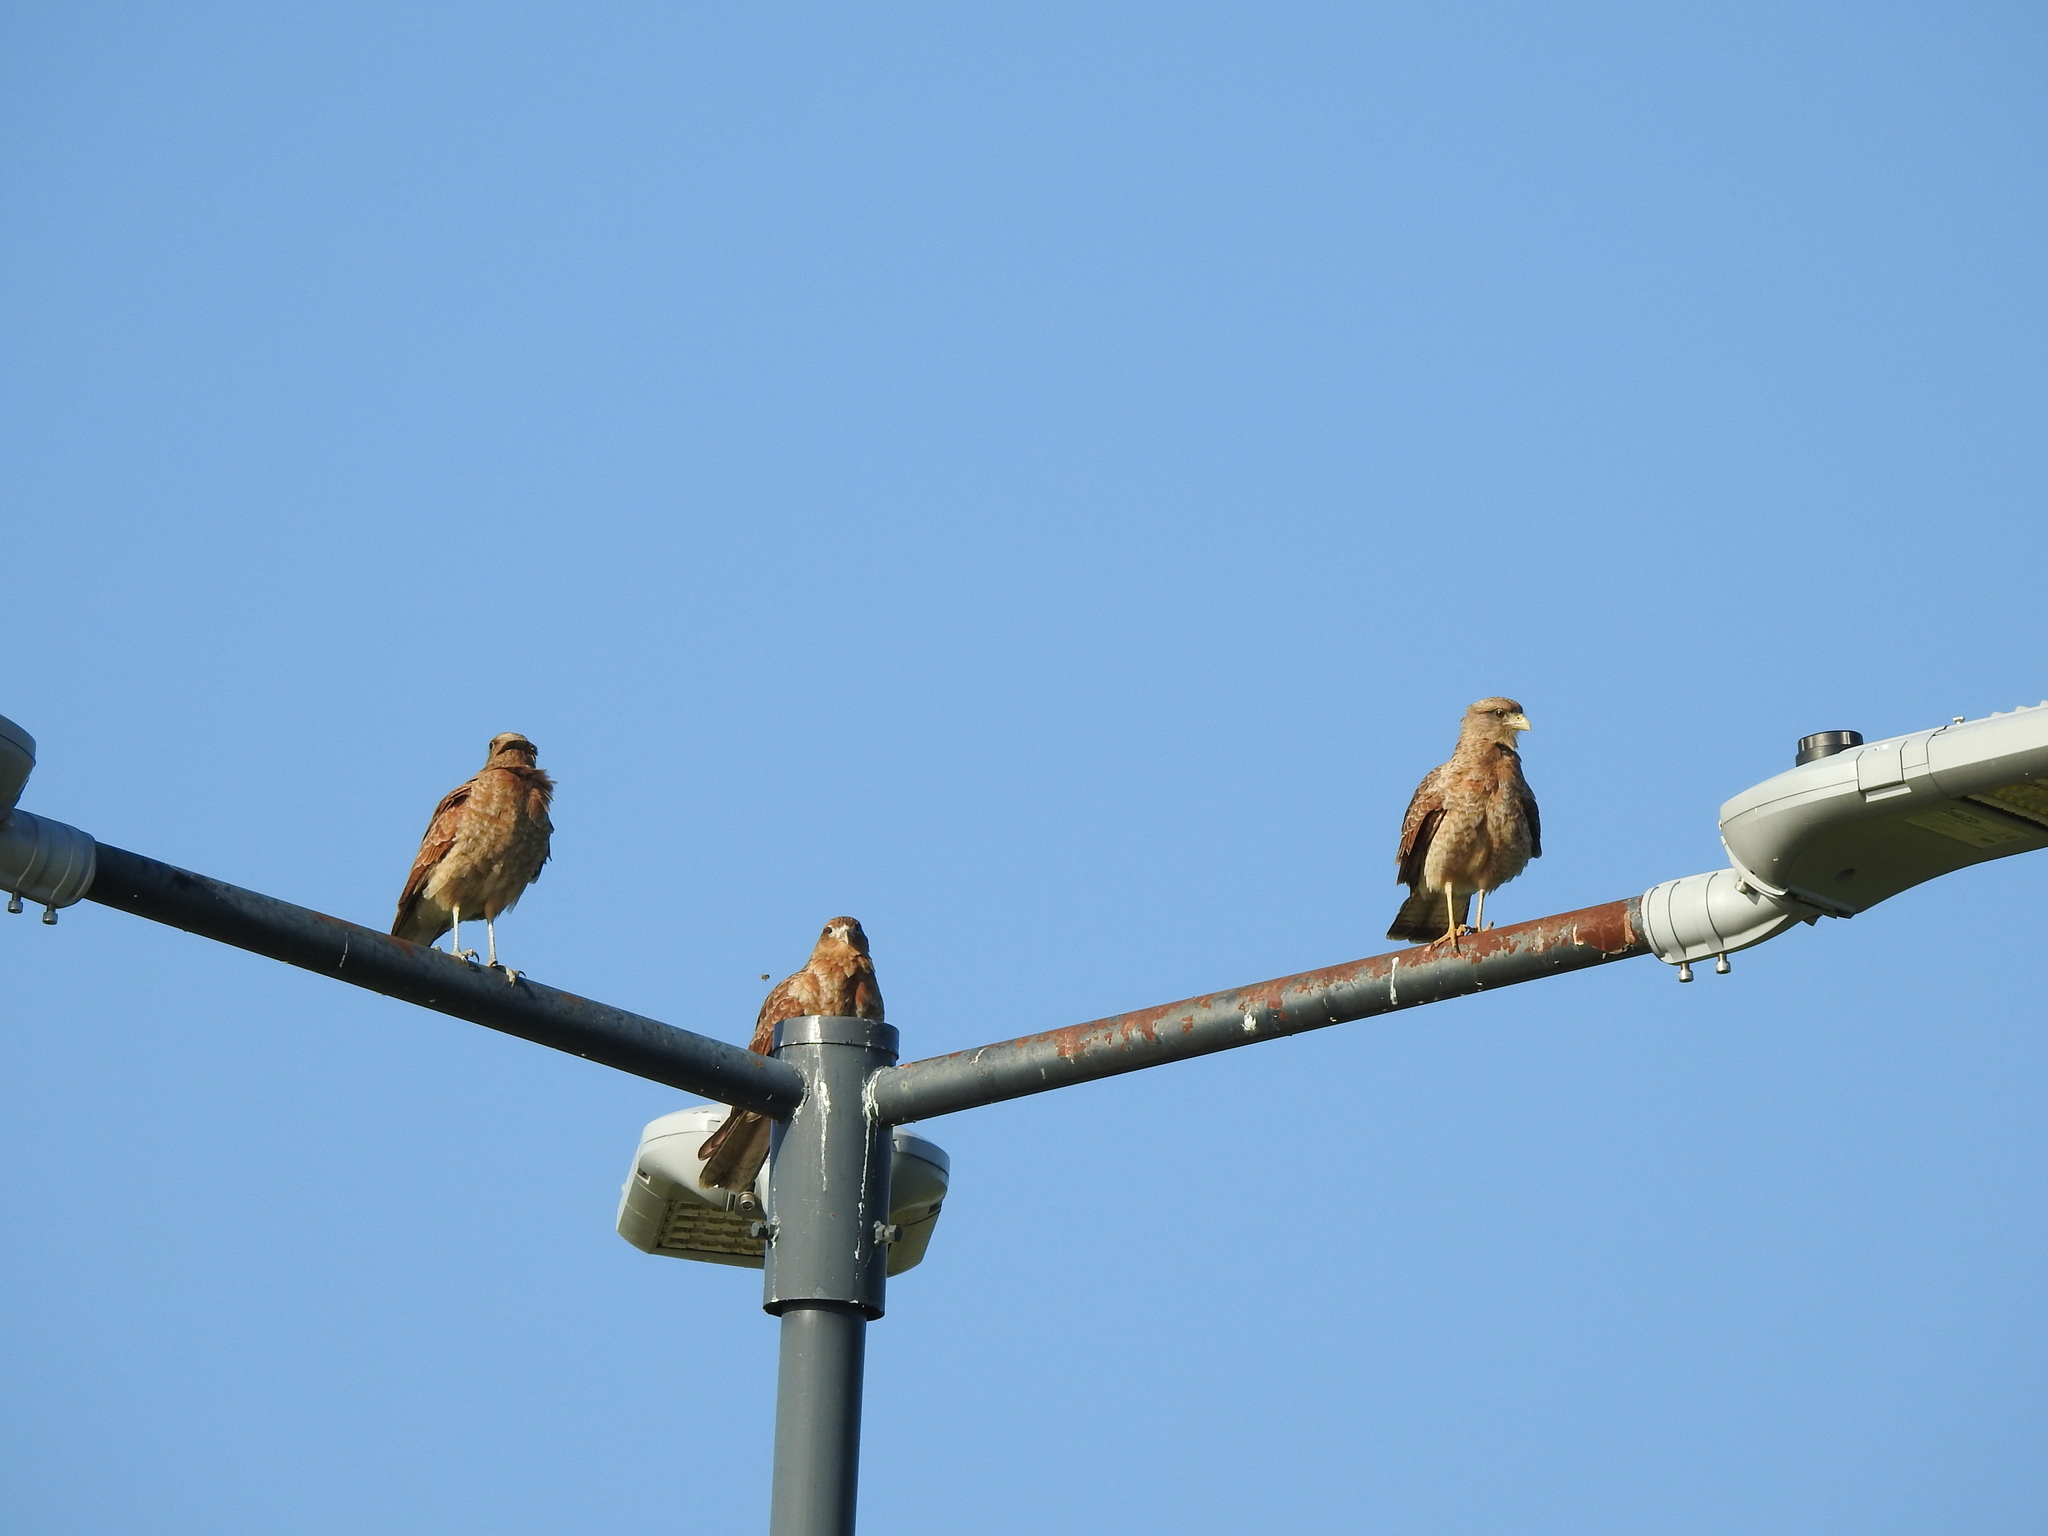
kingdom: Animalia
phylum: Chordata
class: Aves
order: Falconiformes
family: Falconidae
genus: Daptrius
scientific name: Daptrius
